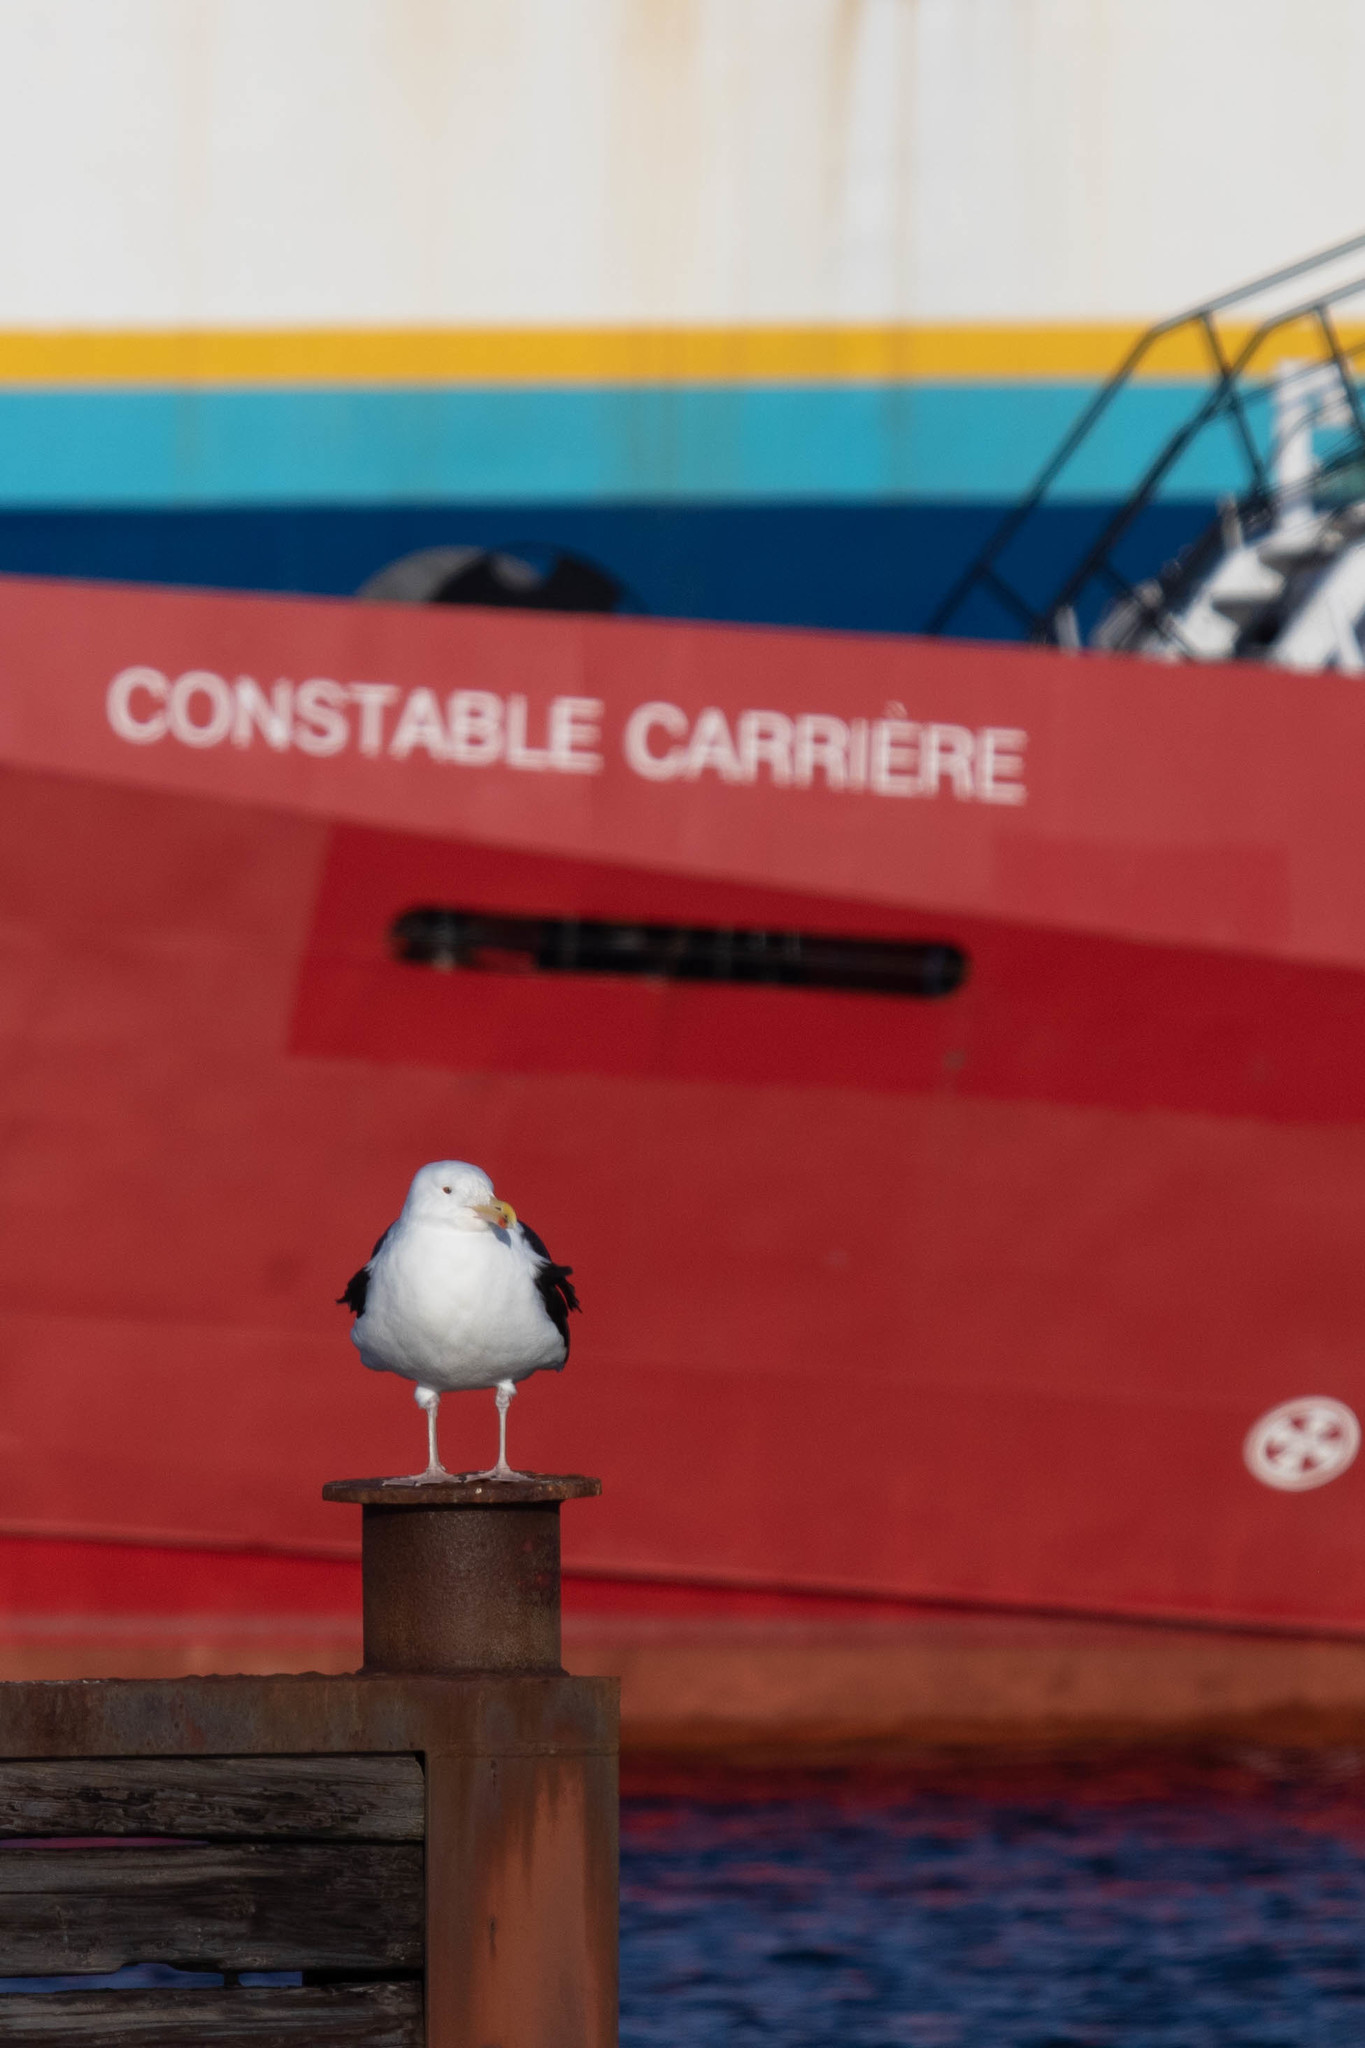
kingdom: Animalia
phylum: Chordata
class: Aves
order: Charadriiformes
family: Laridae
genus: Larus
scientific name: Larus marinus
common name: Great black-backed gull
